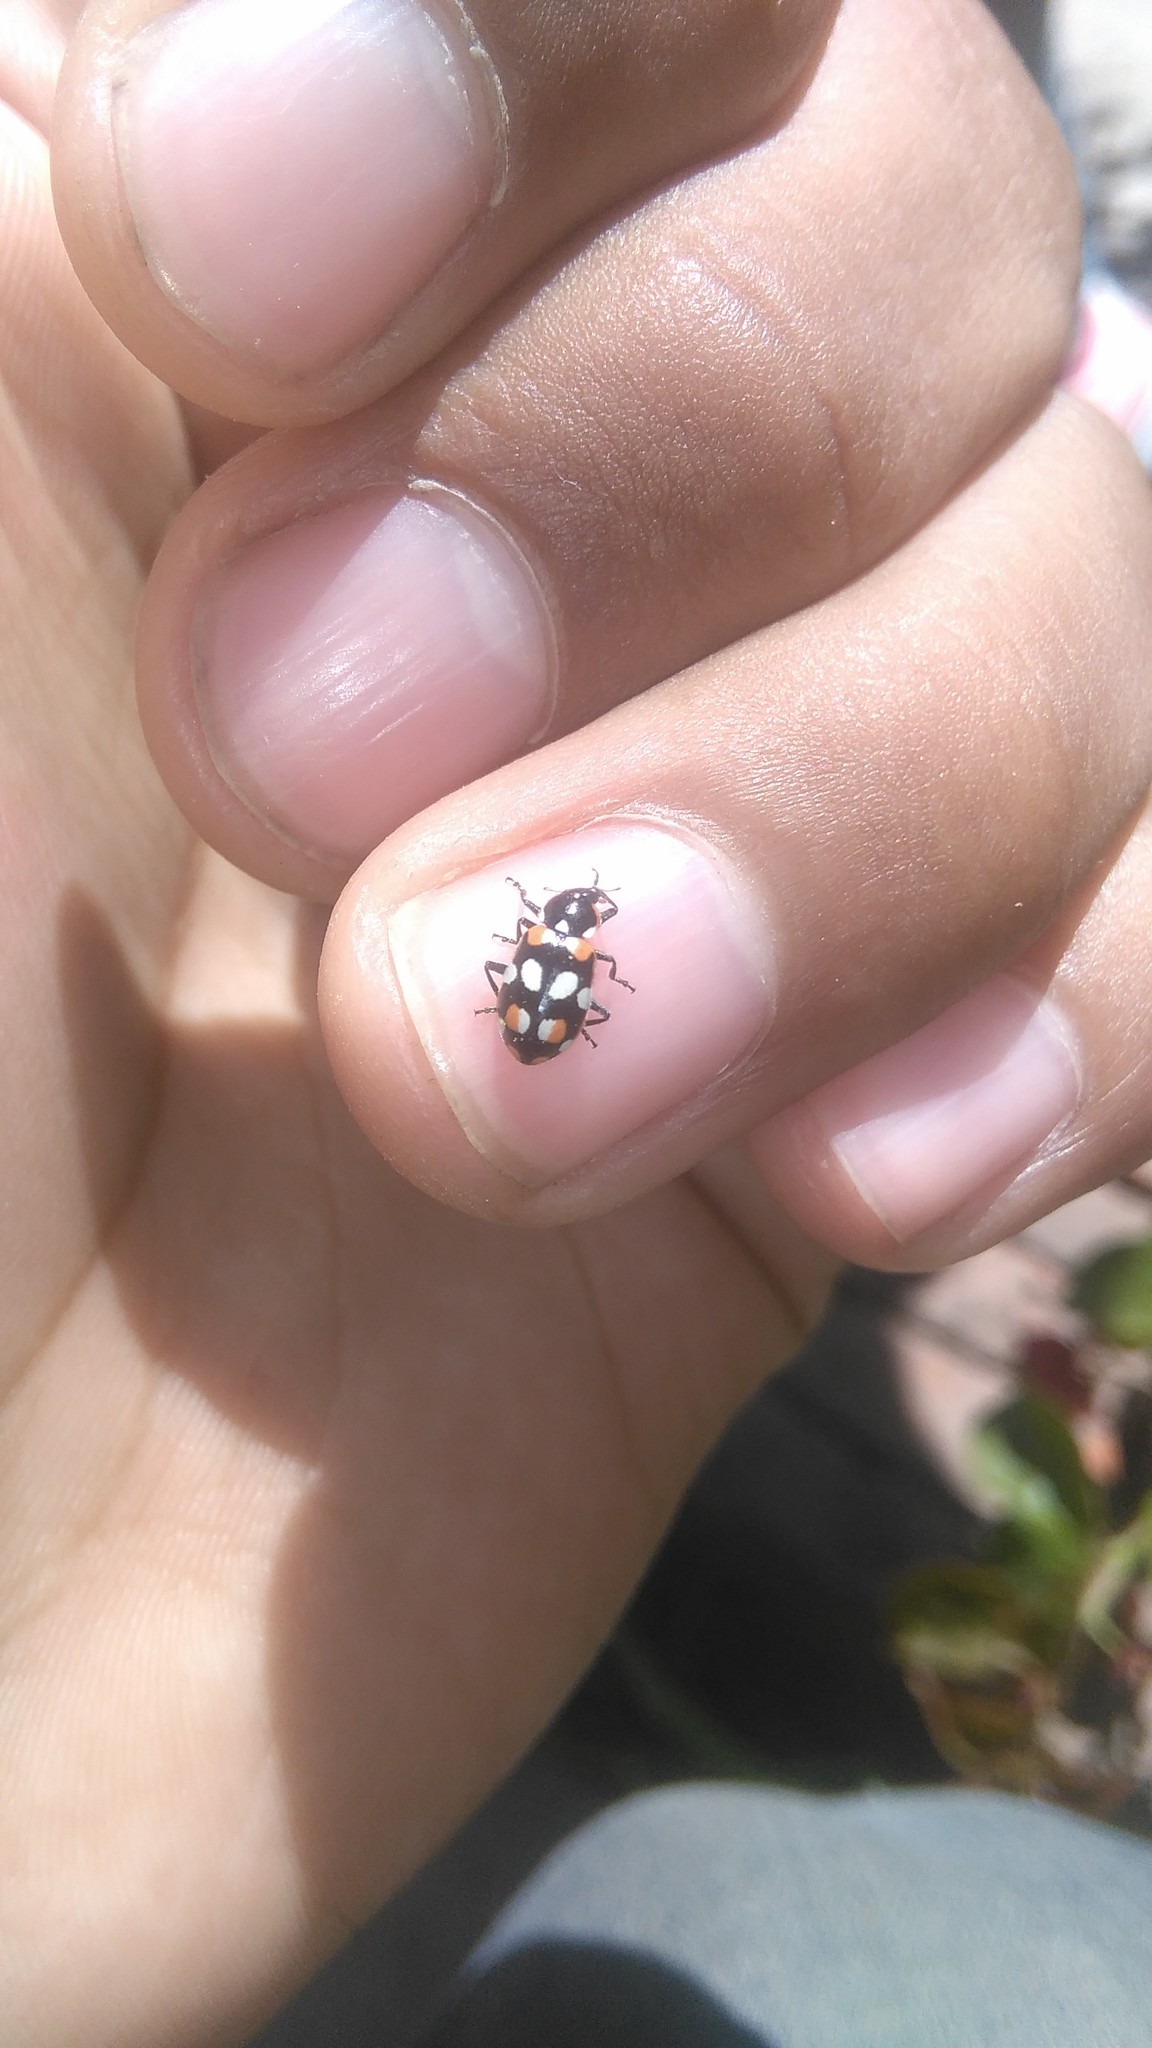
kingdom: Animalia
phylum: Arthropoda
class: Insecta
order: Coleoptera
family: Coccinellidae
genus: Eriopis
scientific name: Eriopis connexa
